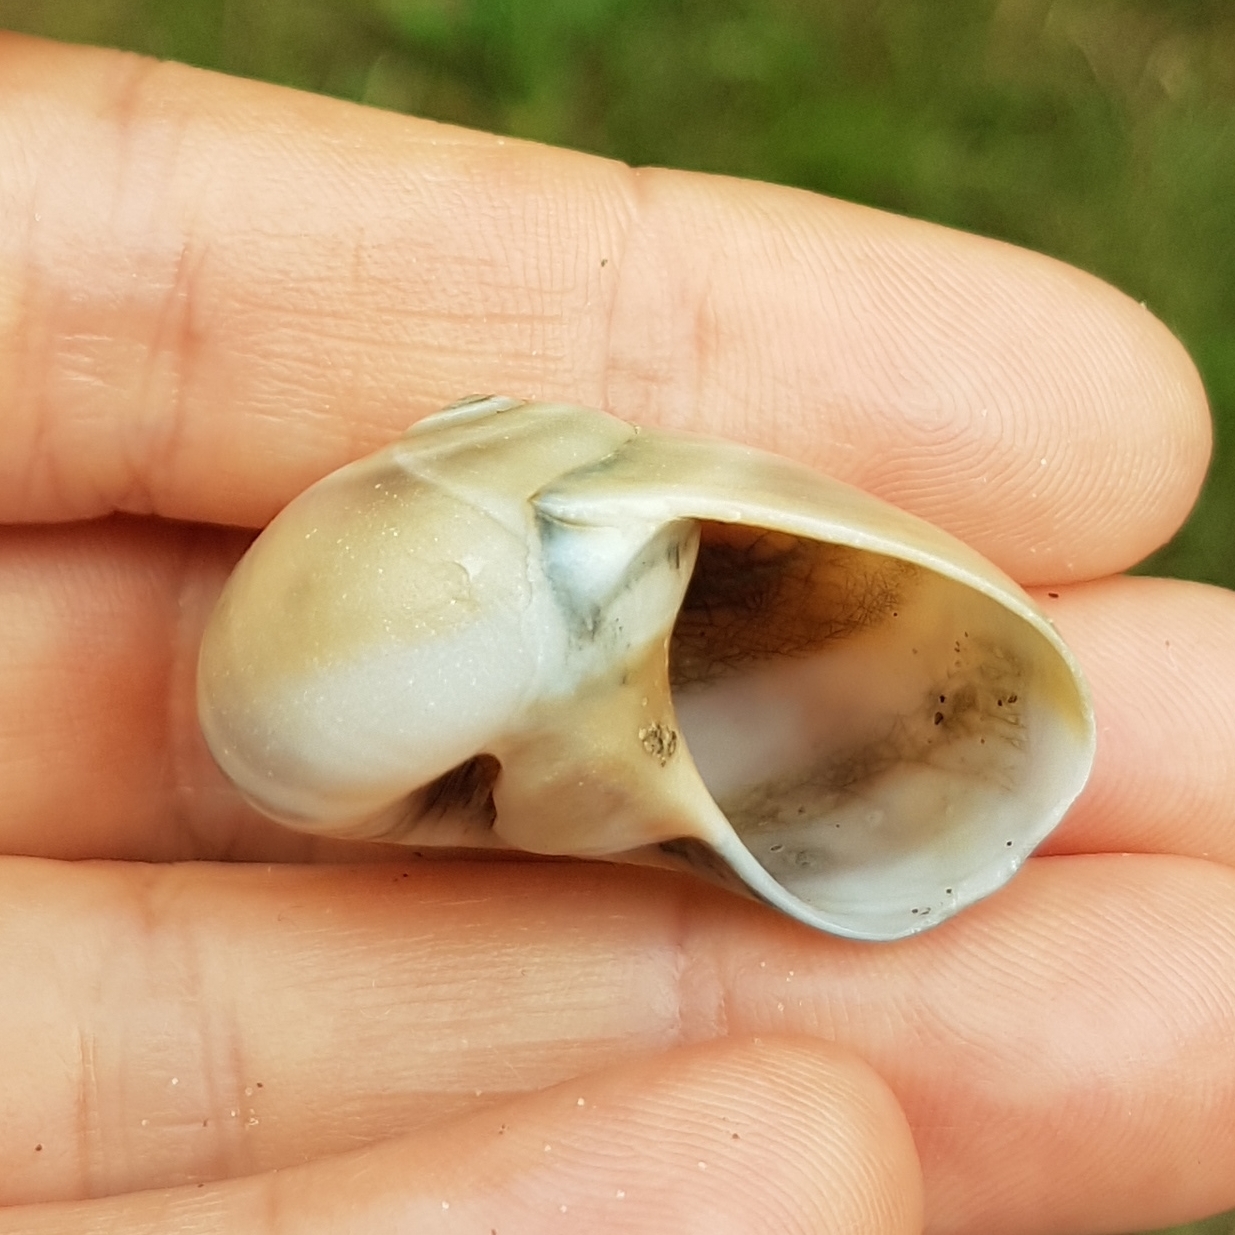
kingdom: Animalia
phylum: Mollusca
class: Gastropoda
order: Littorinimorpha
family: Naticidae
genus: Neverita
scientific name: Neverita josephinia
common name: Josephine's moonsnail
